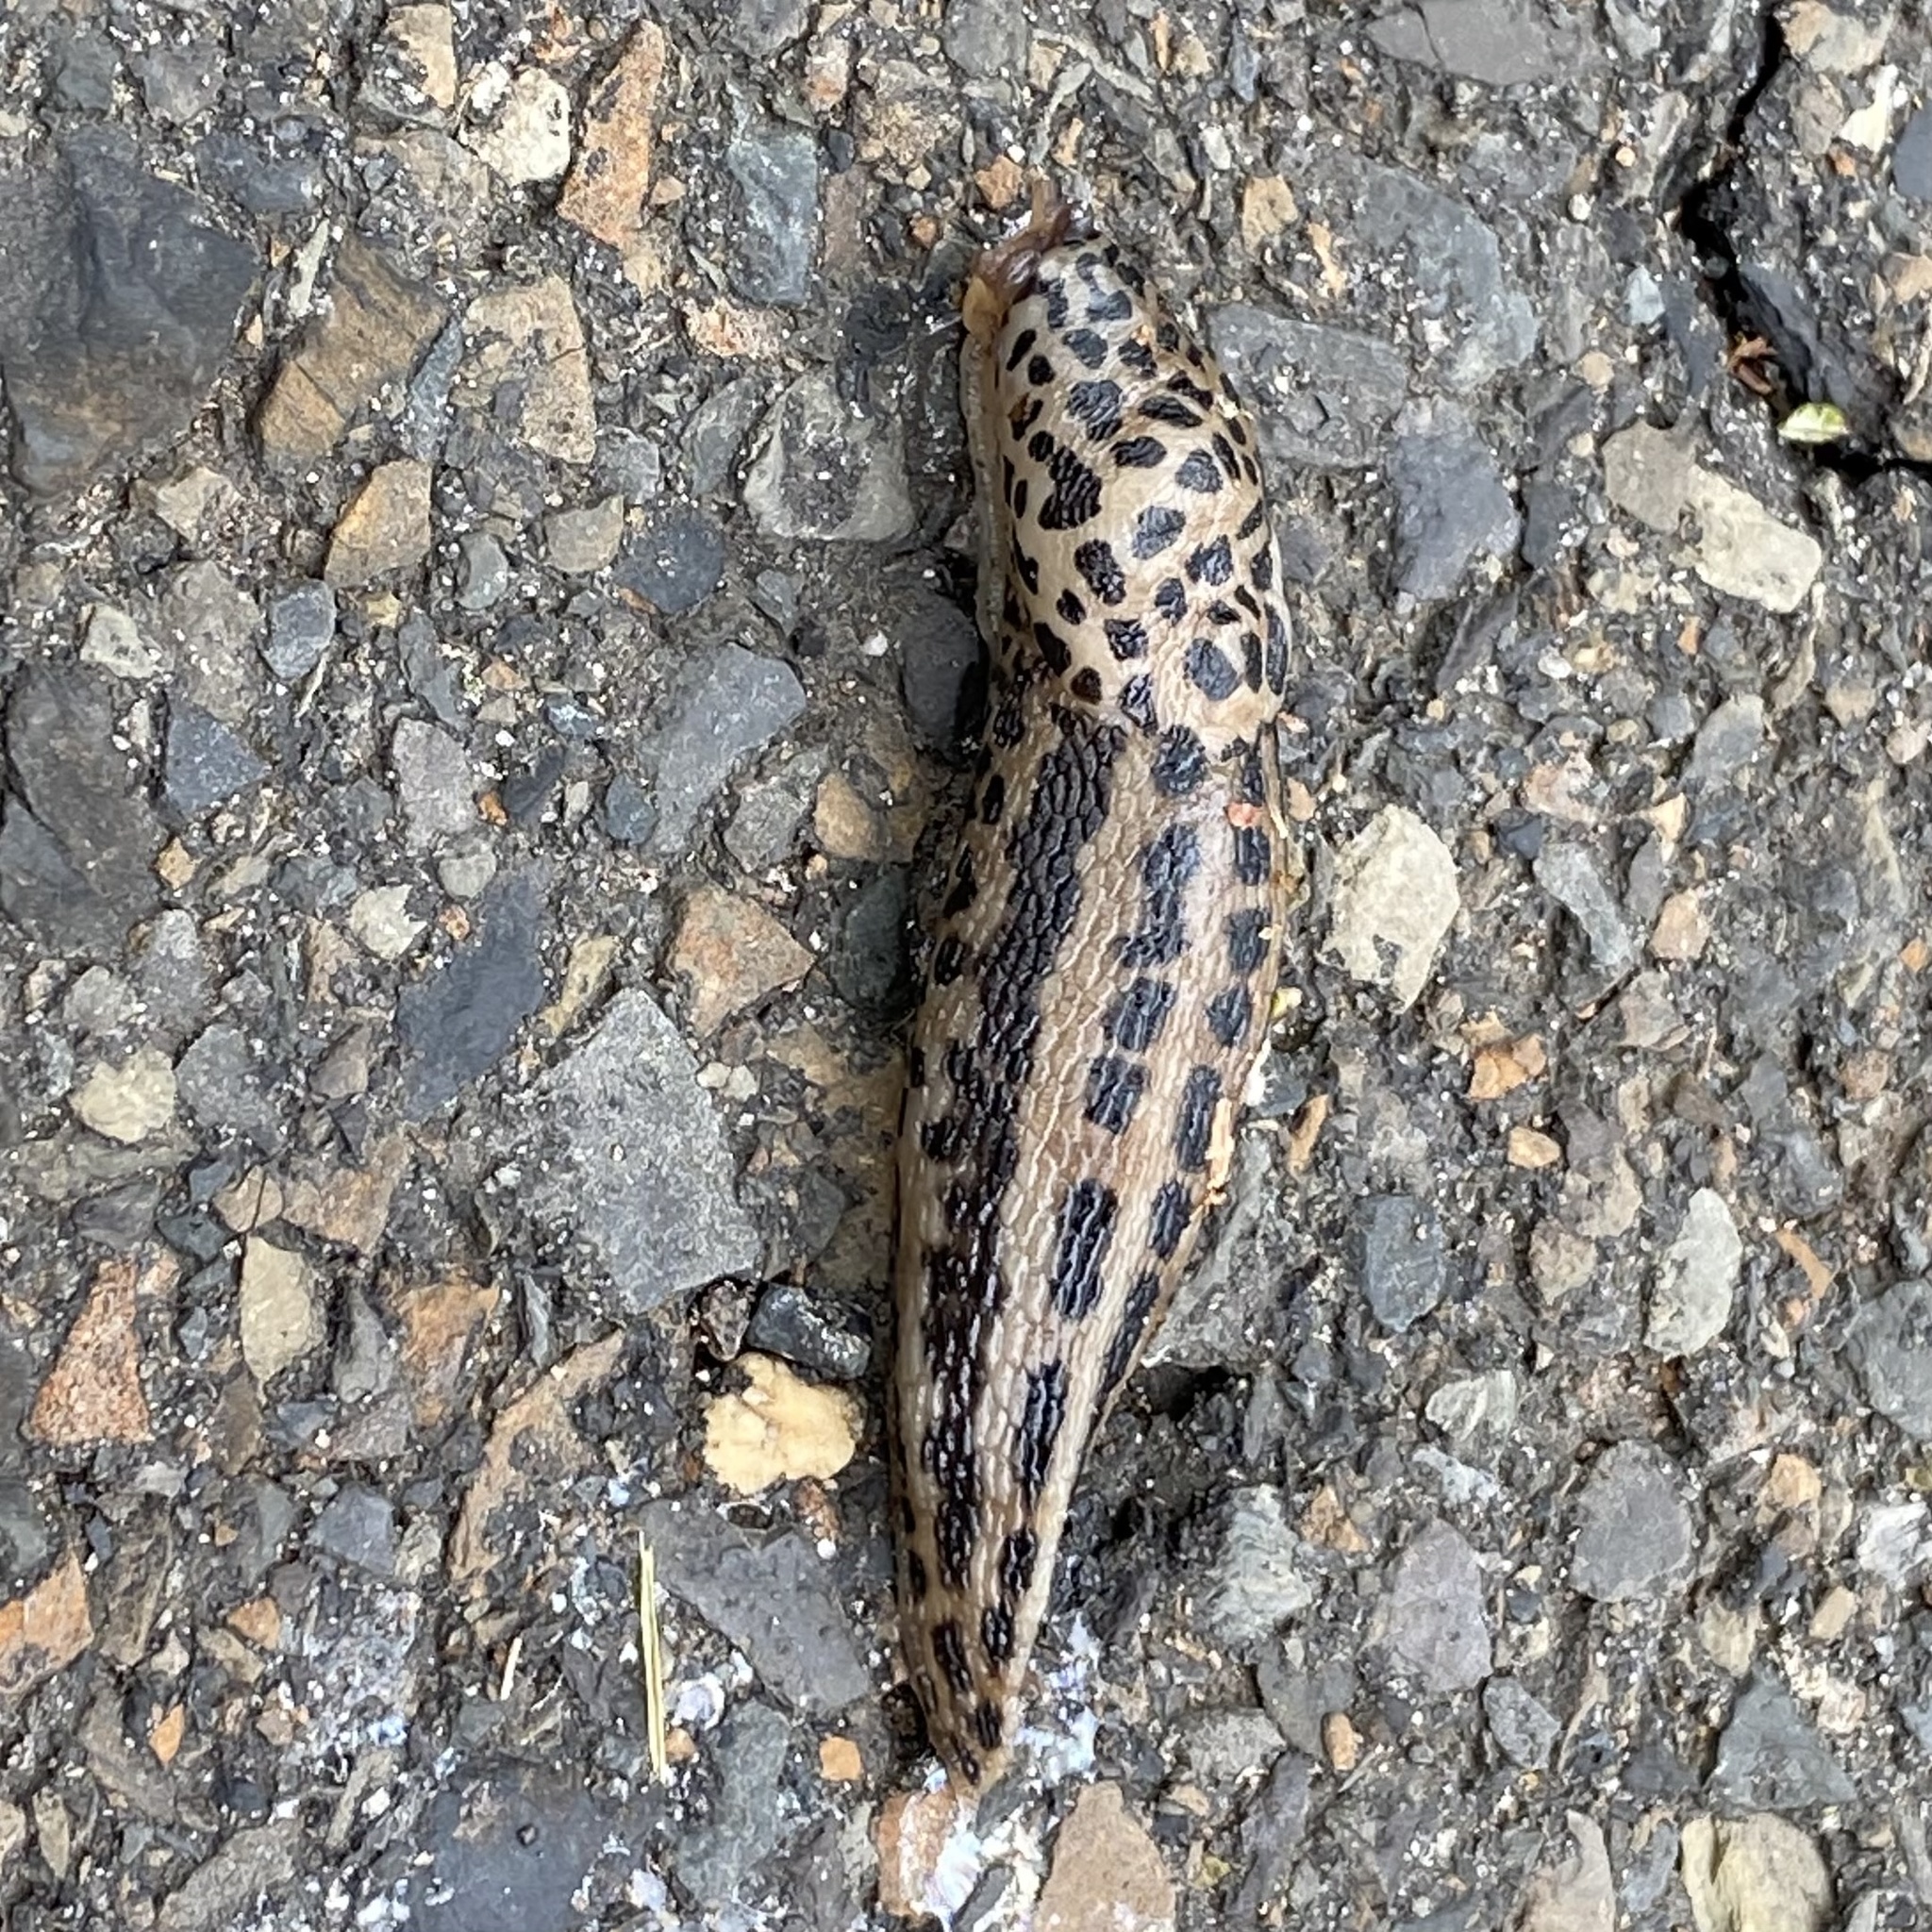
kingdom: Animalia
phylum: Mollusca
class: Gastropoda
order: Stylommatophora
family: Limacidae
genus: Limax
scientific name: Limax maximus
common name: Great grey slug
